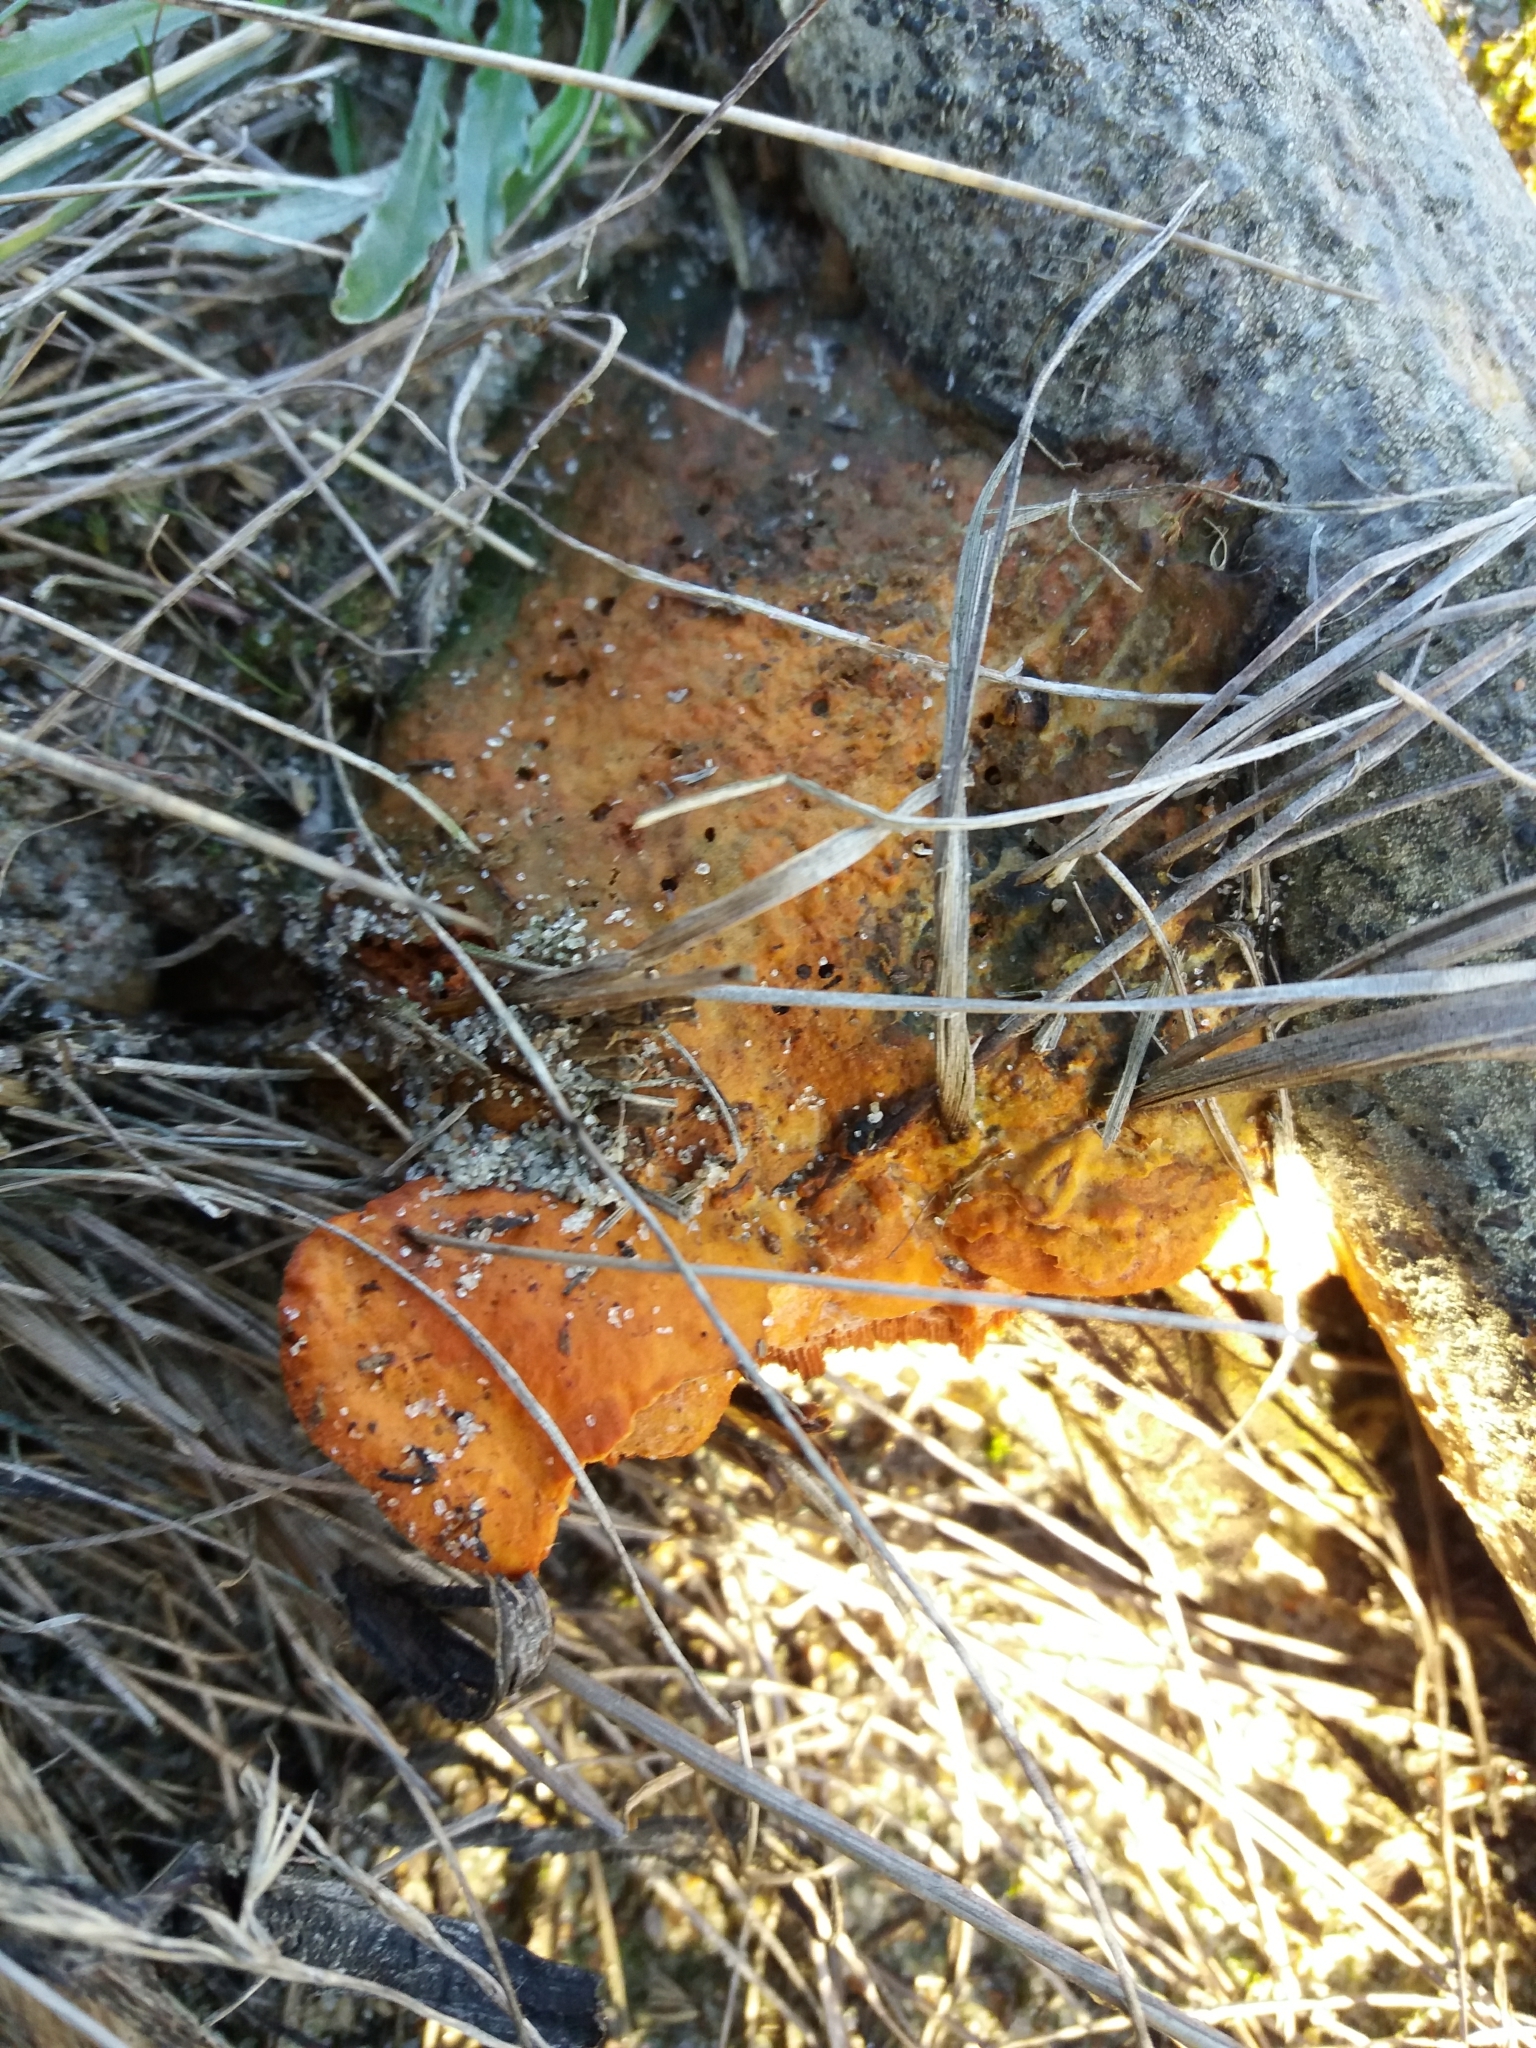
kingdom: Fungi
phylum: Basidiomycota
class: Agaricomycetes
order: Polyporales
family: Polyporaceae
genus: Trametes
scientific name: Trametes cinnabarina
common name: Northern cinnabar polypore
